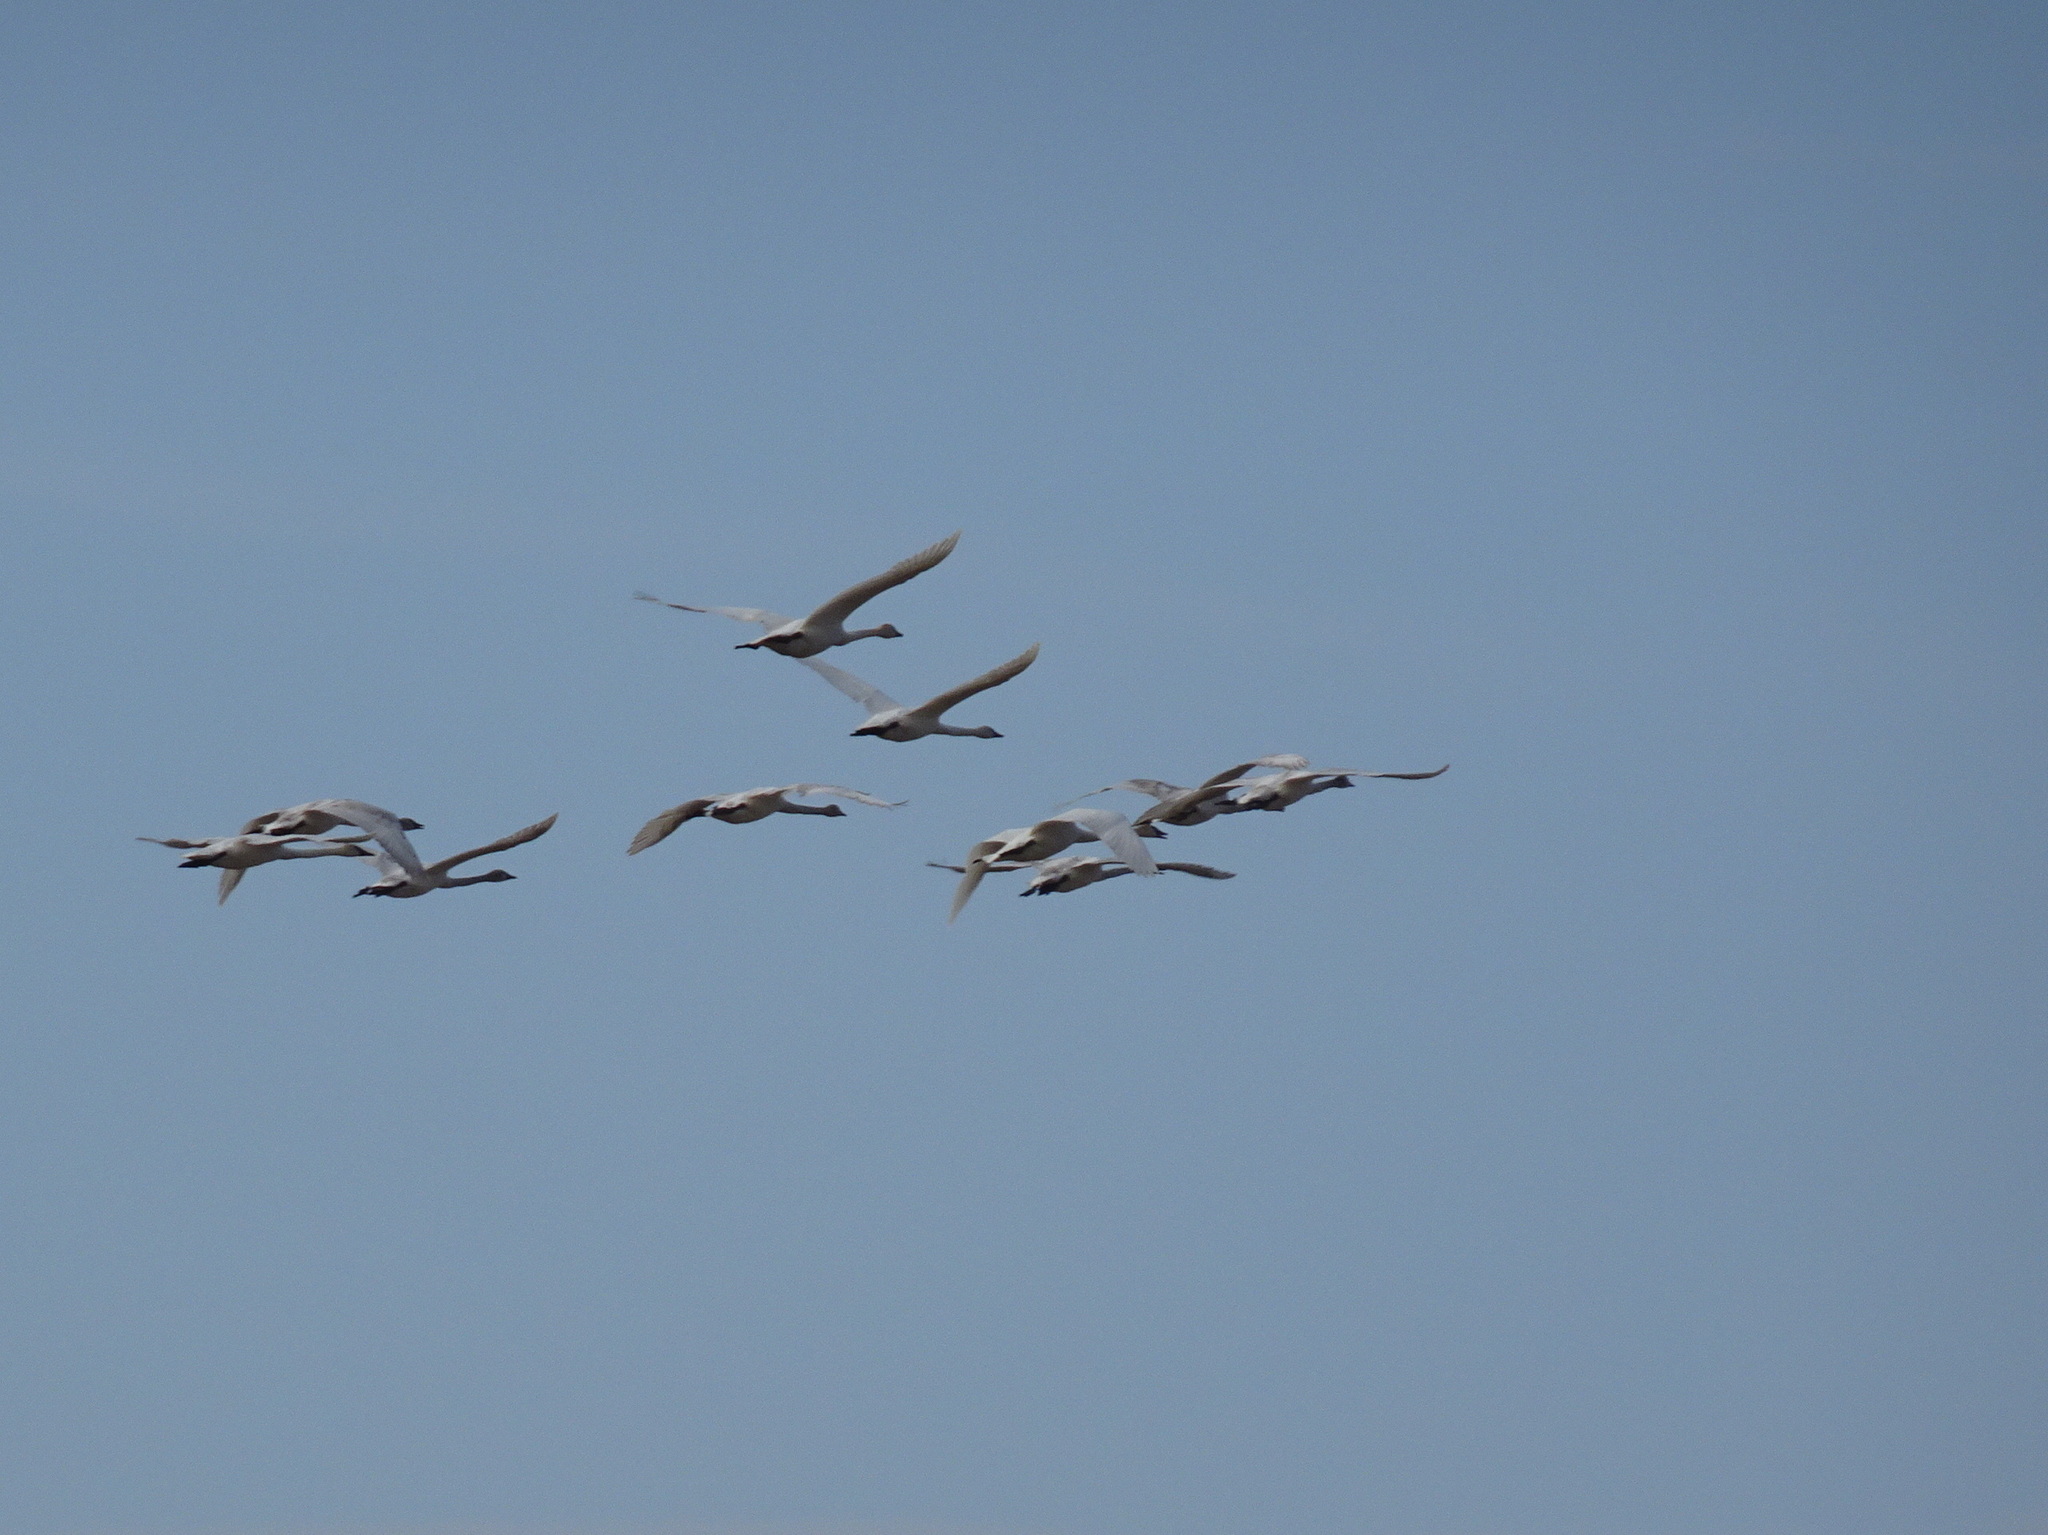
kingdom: Animalia
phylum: Chordata
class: Aves
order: Anseriformes
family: Anatidae
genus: Cygnus
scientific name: Cygnus buccinator
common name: Trumpeter swan
